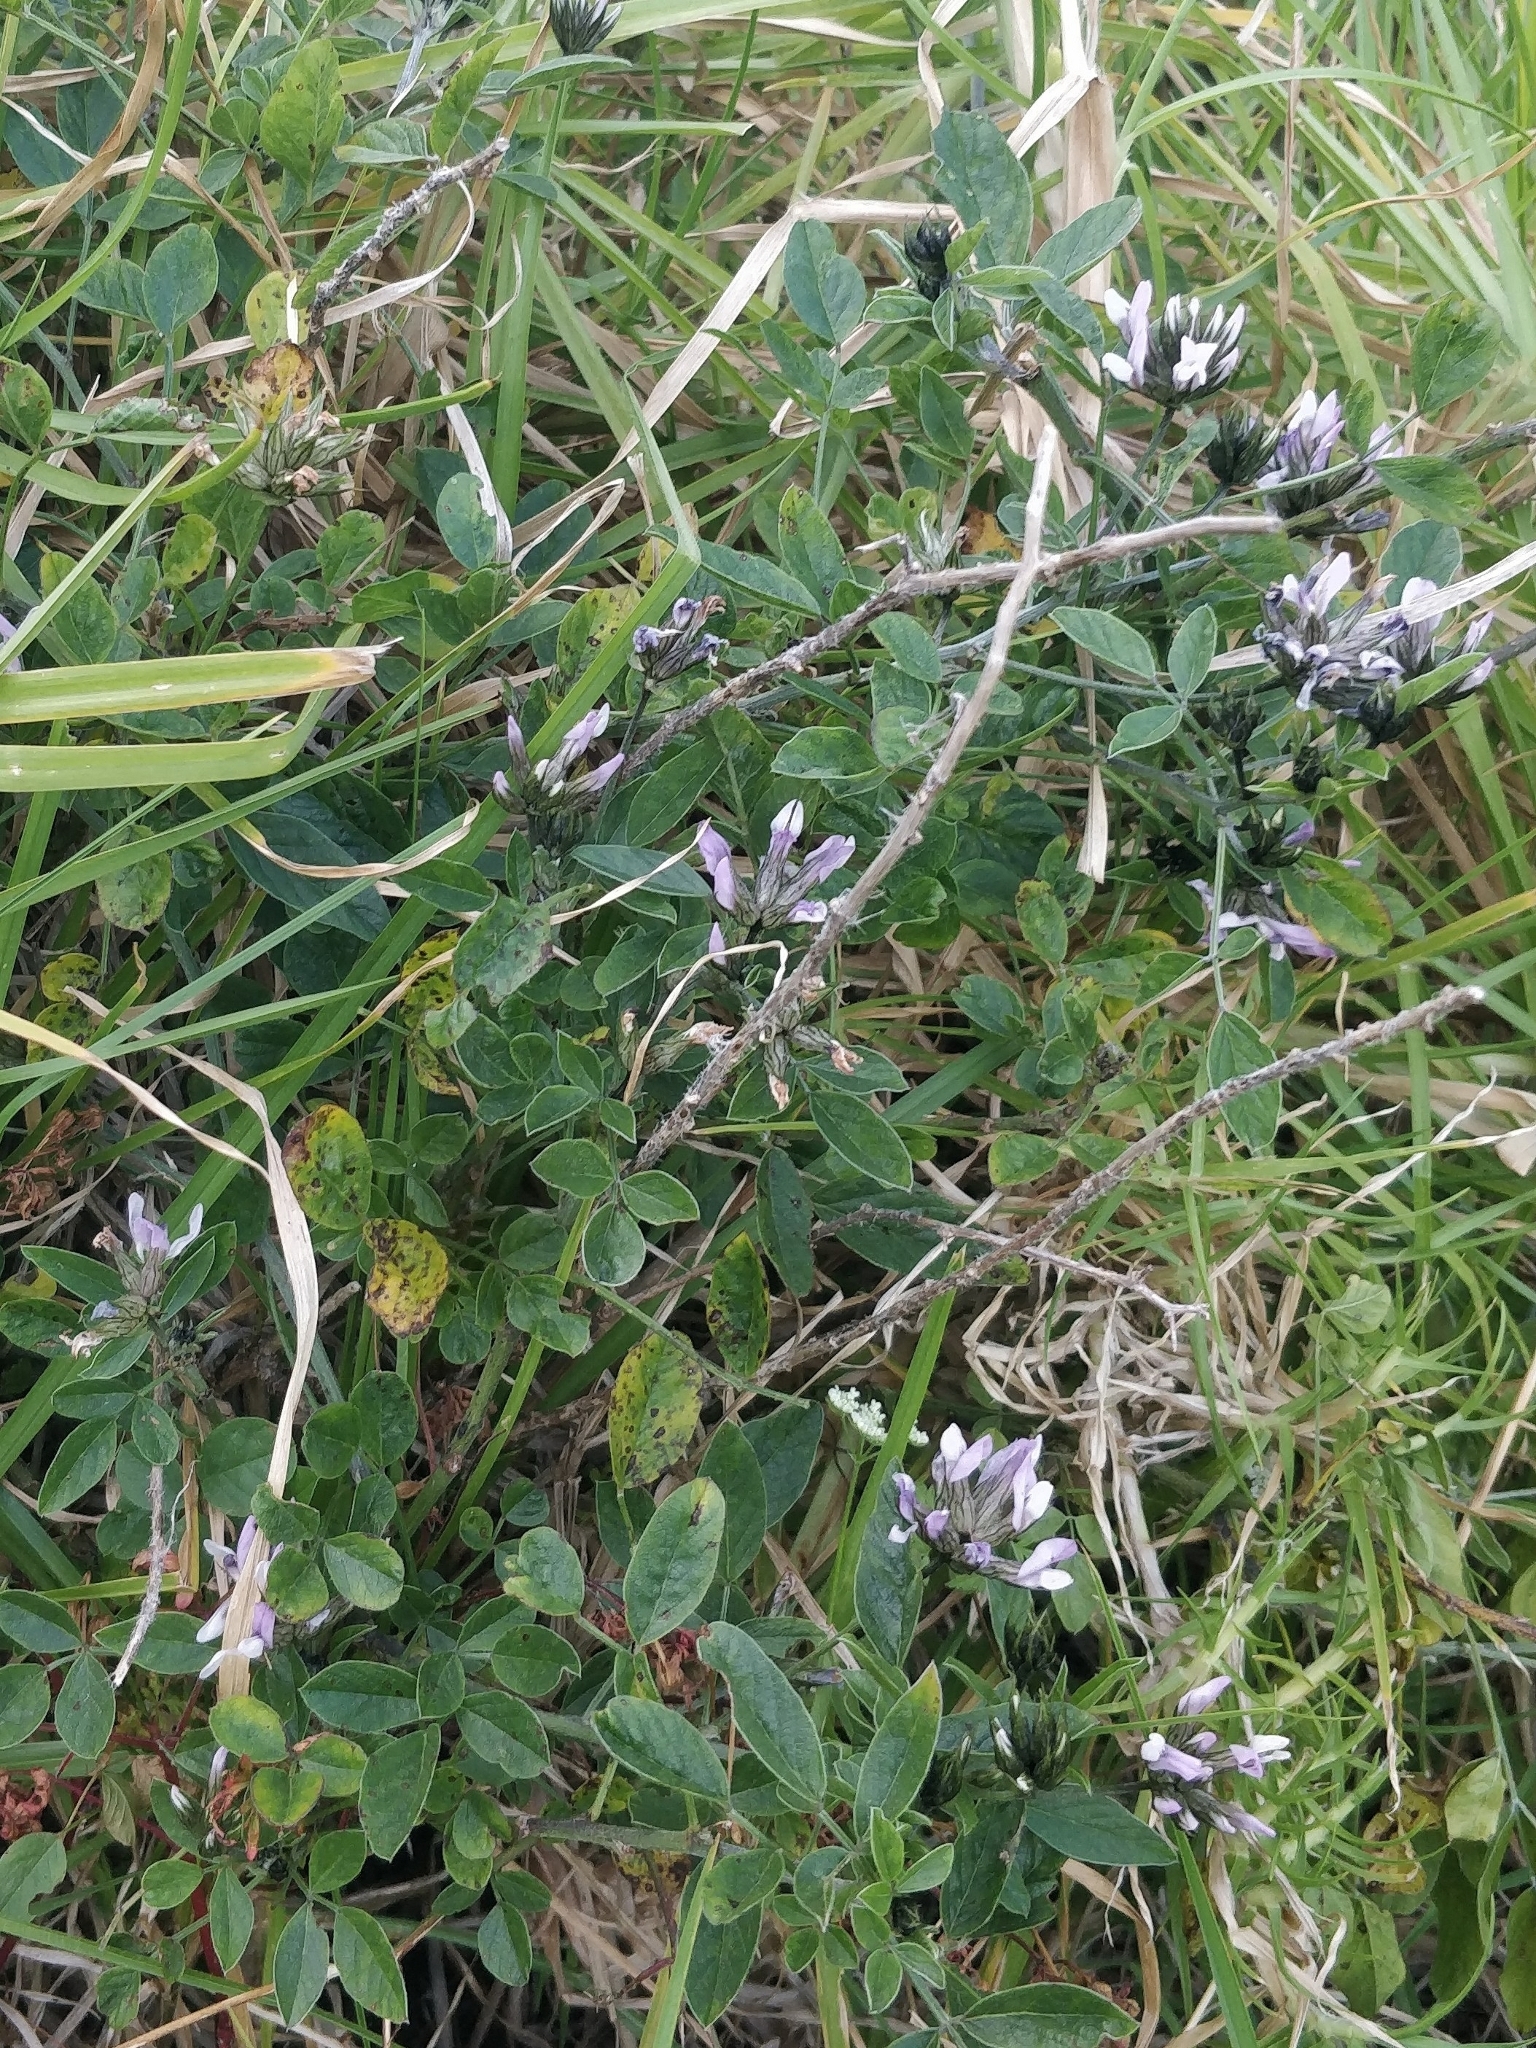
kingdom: Plantae
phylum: Tracheophyta
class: Magnoliopsida
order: Fabales
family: Fabaceae
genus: Bituminaria
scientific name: Bituminaria bituminosa
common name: Arabian pea
